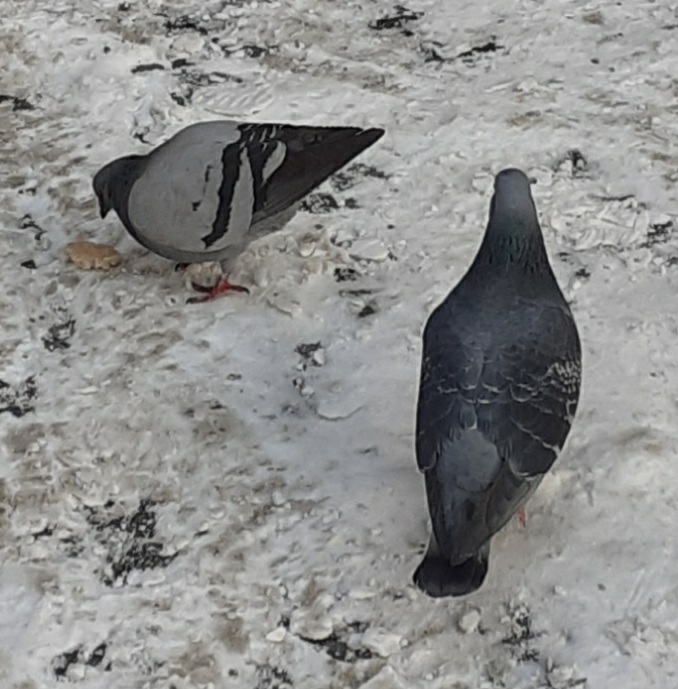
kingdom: Animalia
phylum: Chordata
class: Aves
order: Columbiformes
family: Columbidae
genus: Columba
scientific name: Columba livia
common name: Rock pigeon
